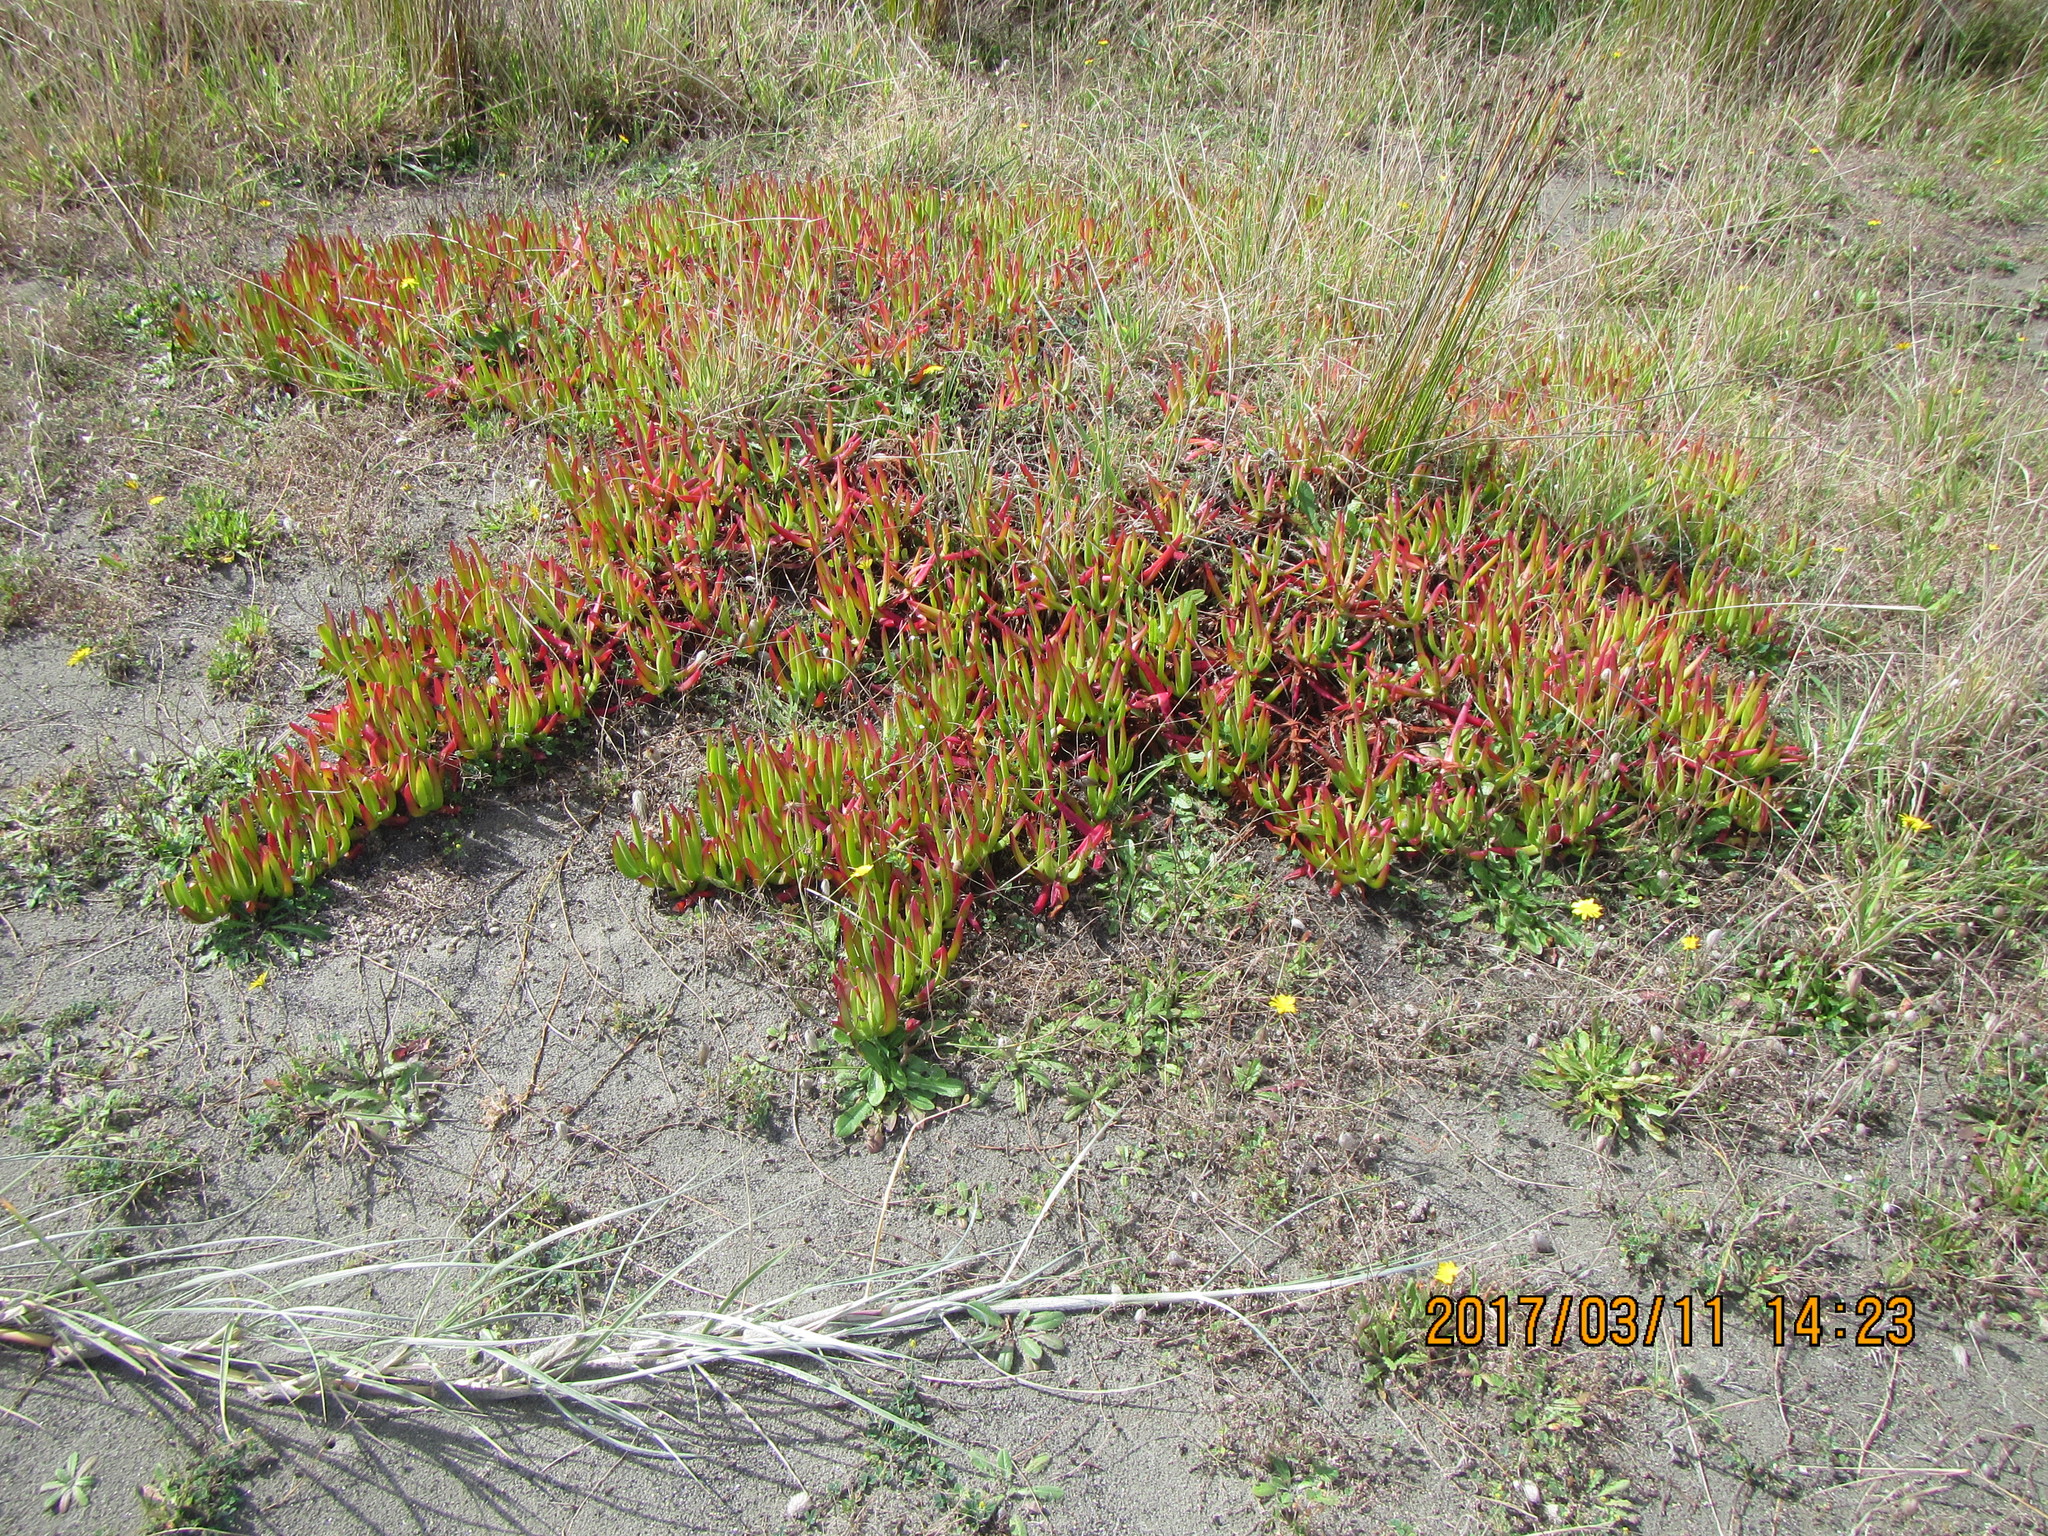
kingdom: Plantae
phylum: Tracheophyta
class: Magnoliopsida
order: Caryophyllales
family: Aizoaceae
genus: Carpobrotus
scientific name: Carpobrotus edulis
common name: Hottentot-fig
